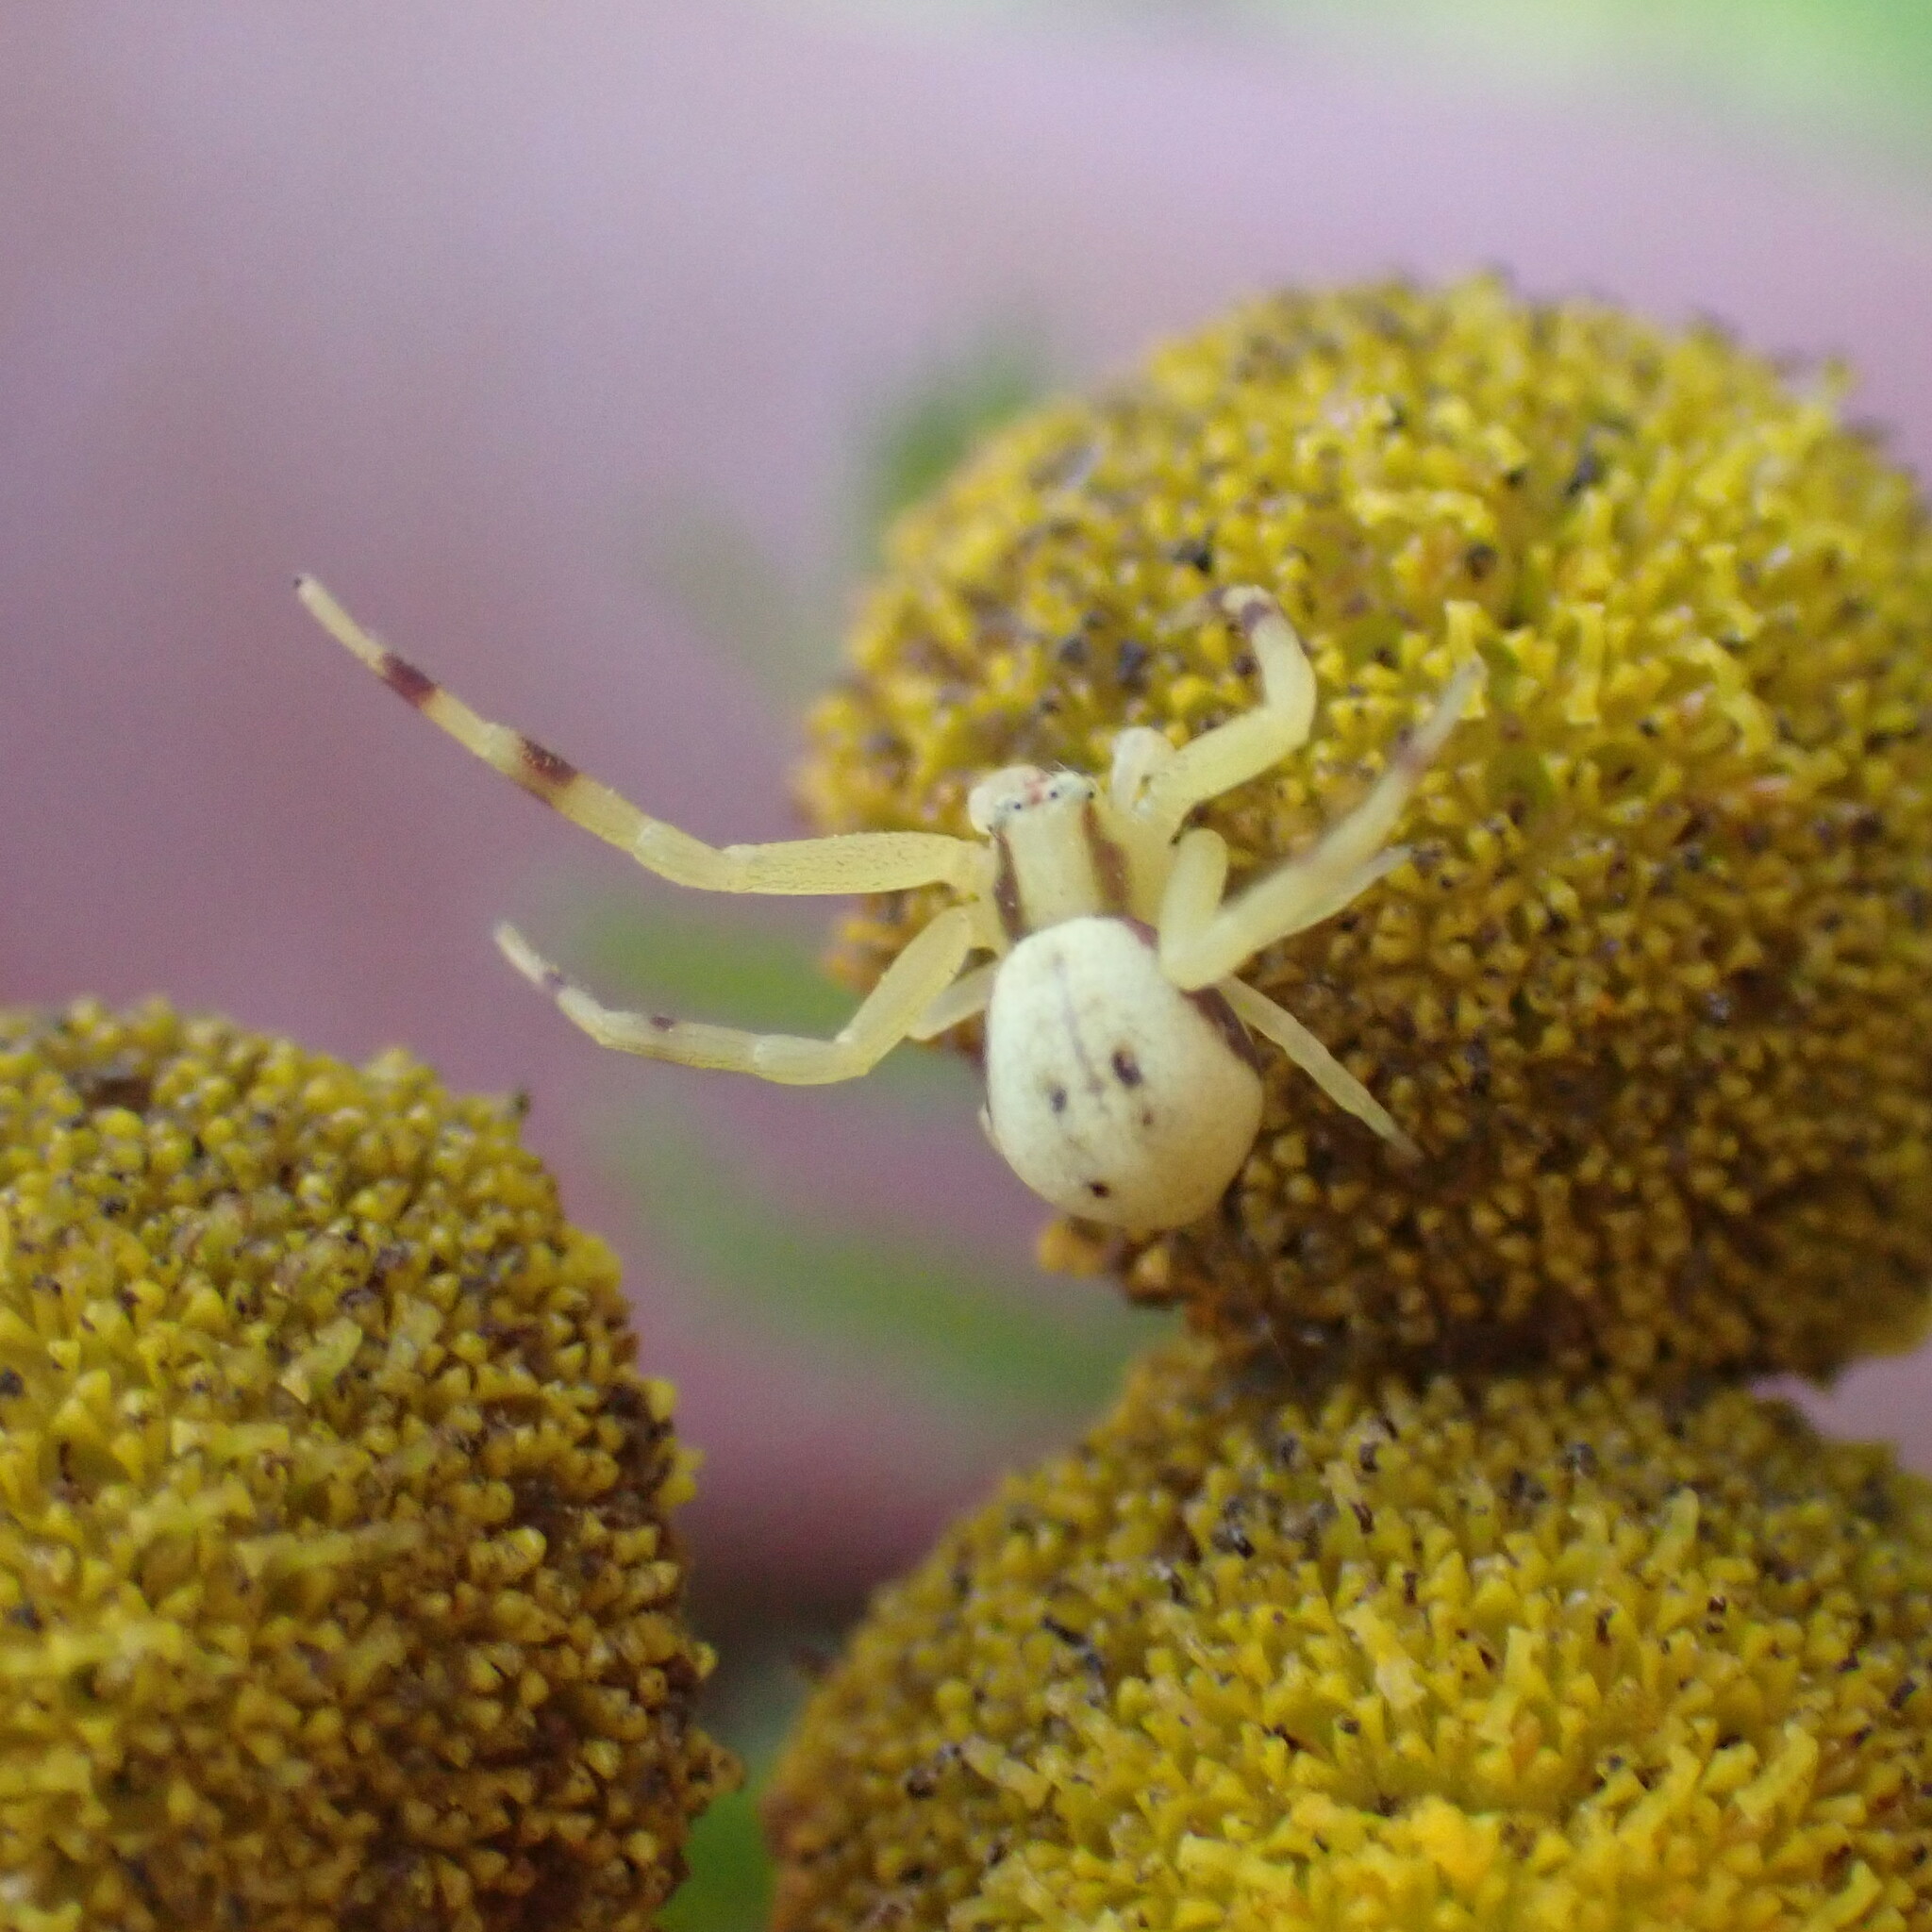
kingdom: Animalia
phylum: Arthropoda
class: Arachnida
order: Araneae
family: Thomisidae
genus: Misumena
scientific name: Misumena vatia
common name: Goldenrod crab spider
